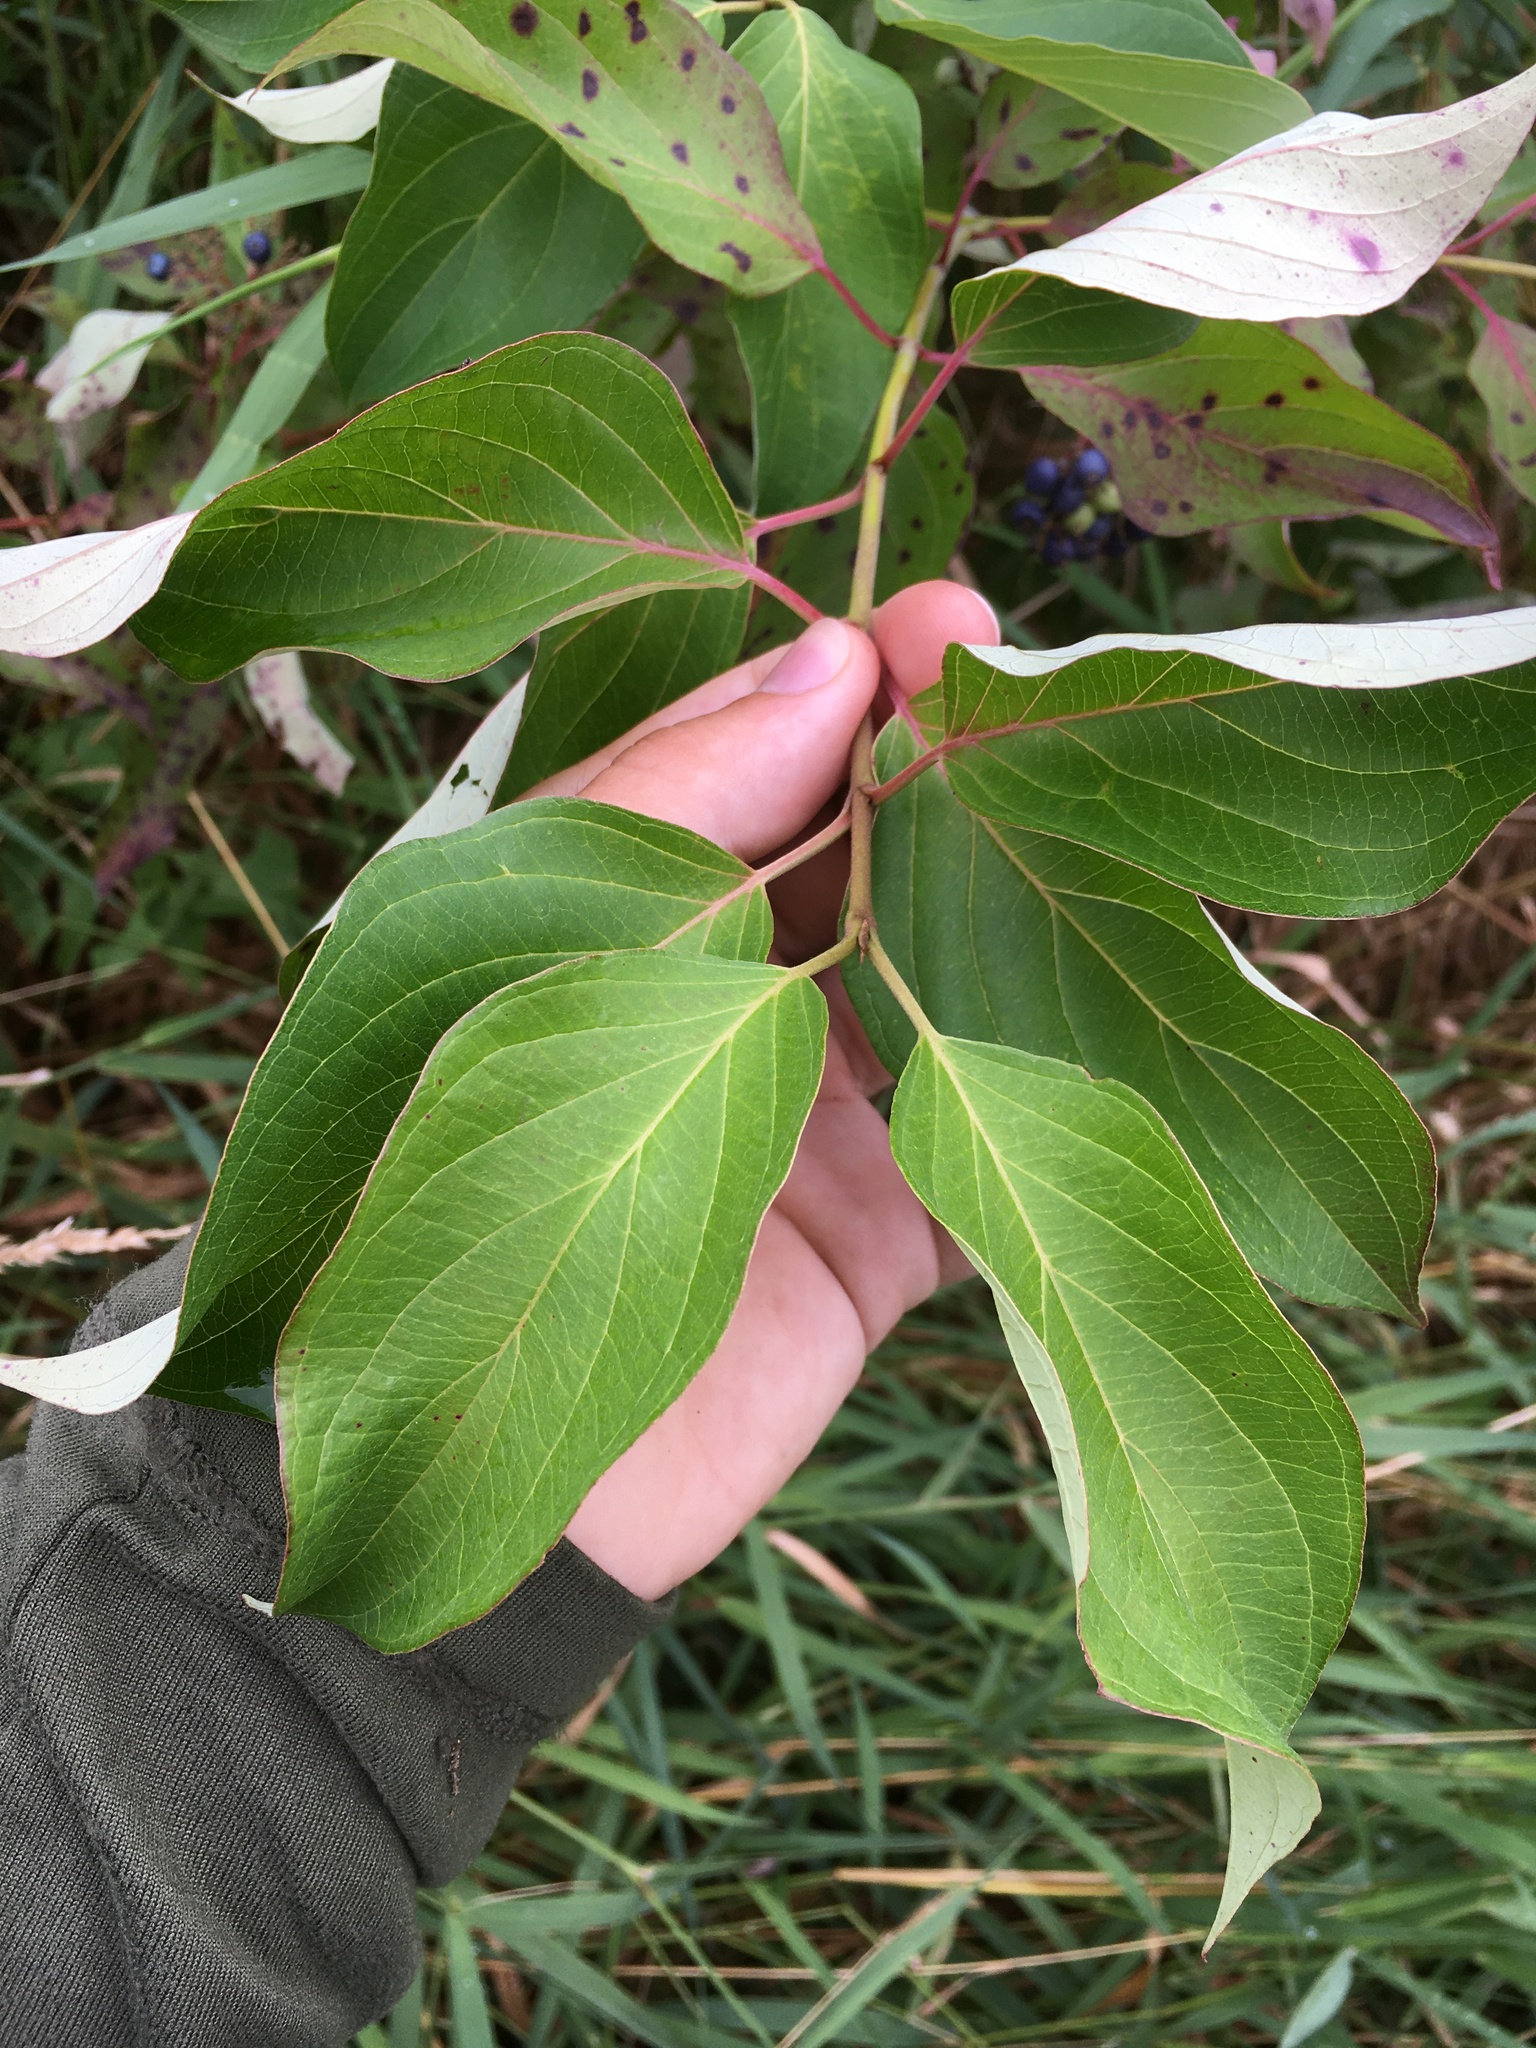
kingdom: Plantae
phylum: Tracheophyta
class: Magnoliopsida
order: Cornales
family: Cornaceae
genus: Cornus
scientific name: Cornus amomum
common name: Silky dogwood
